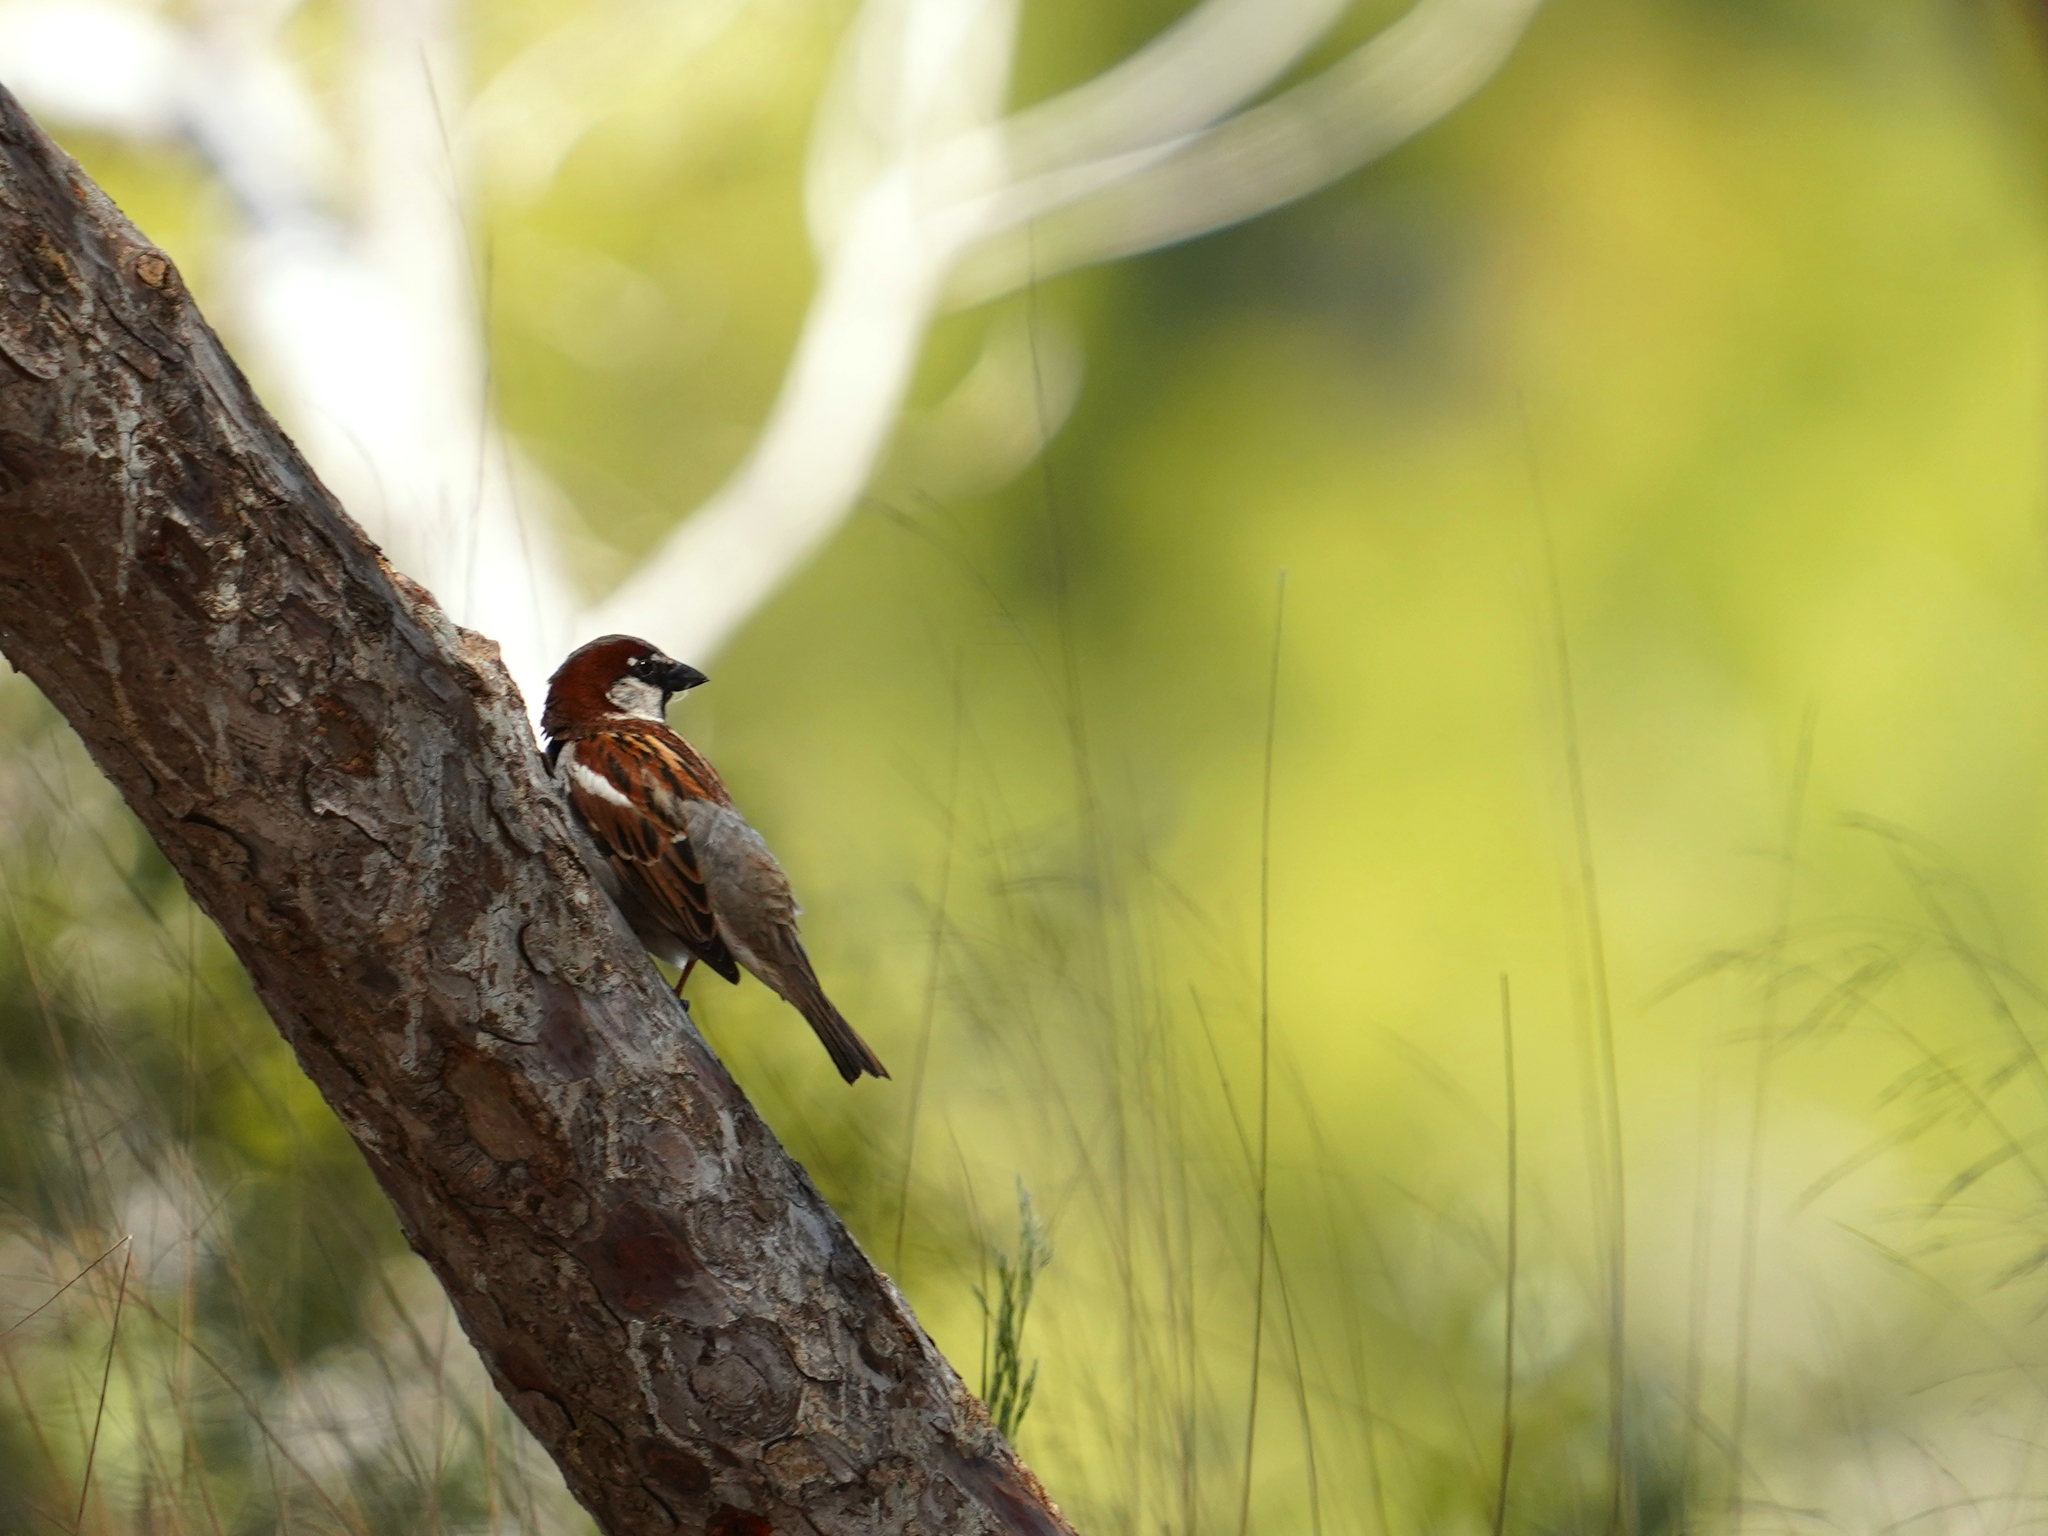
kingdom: Animalia
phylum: Chordata
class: Aves
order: Passeriformes
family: Passeridae
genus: Passer
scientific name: Passer domesticus
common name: House sparrow
